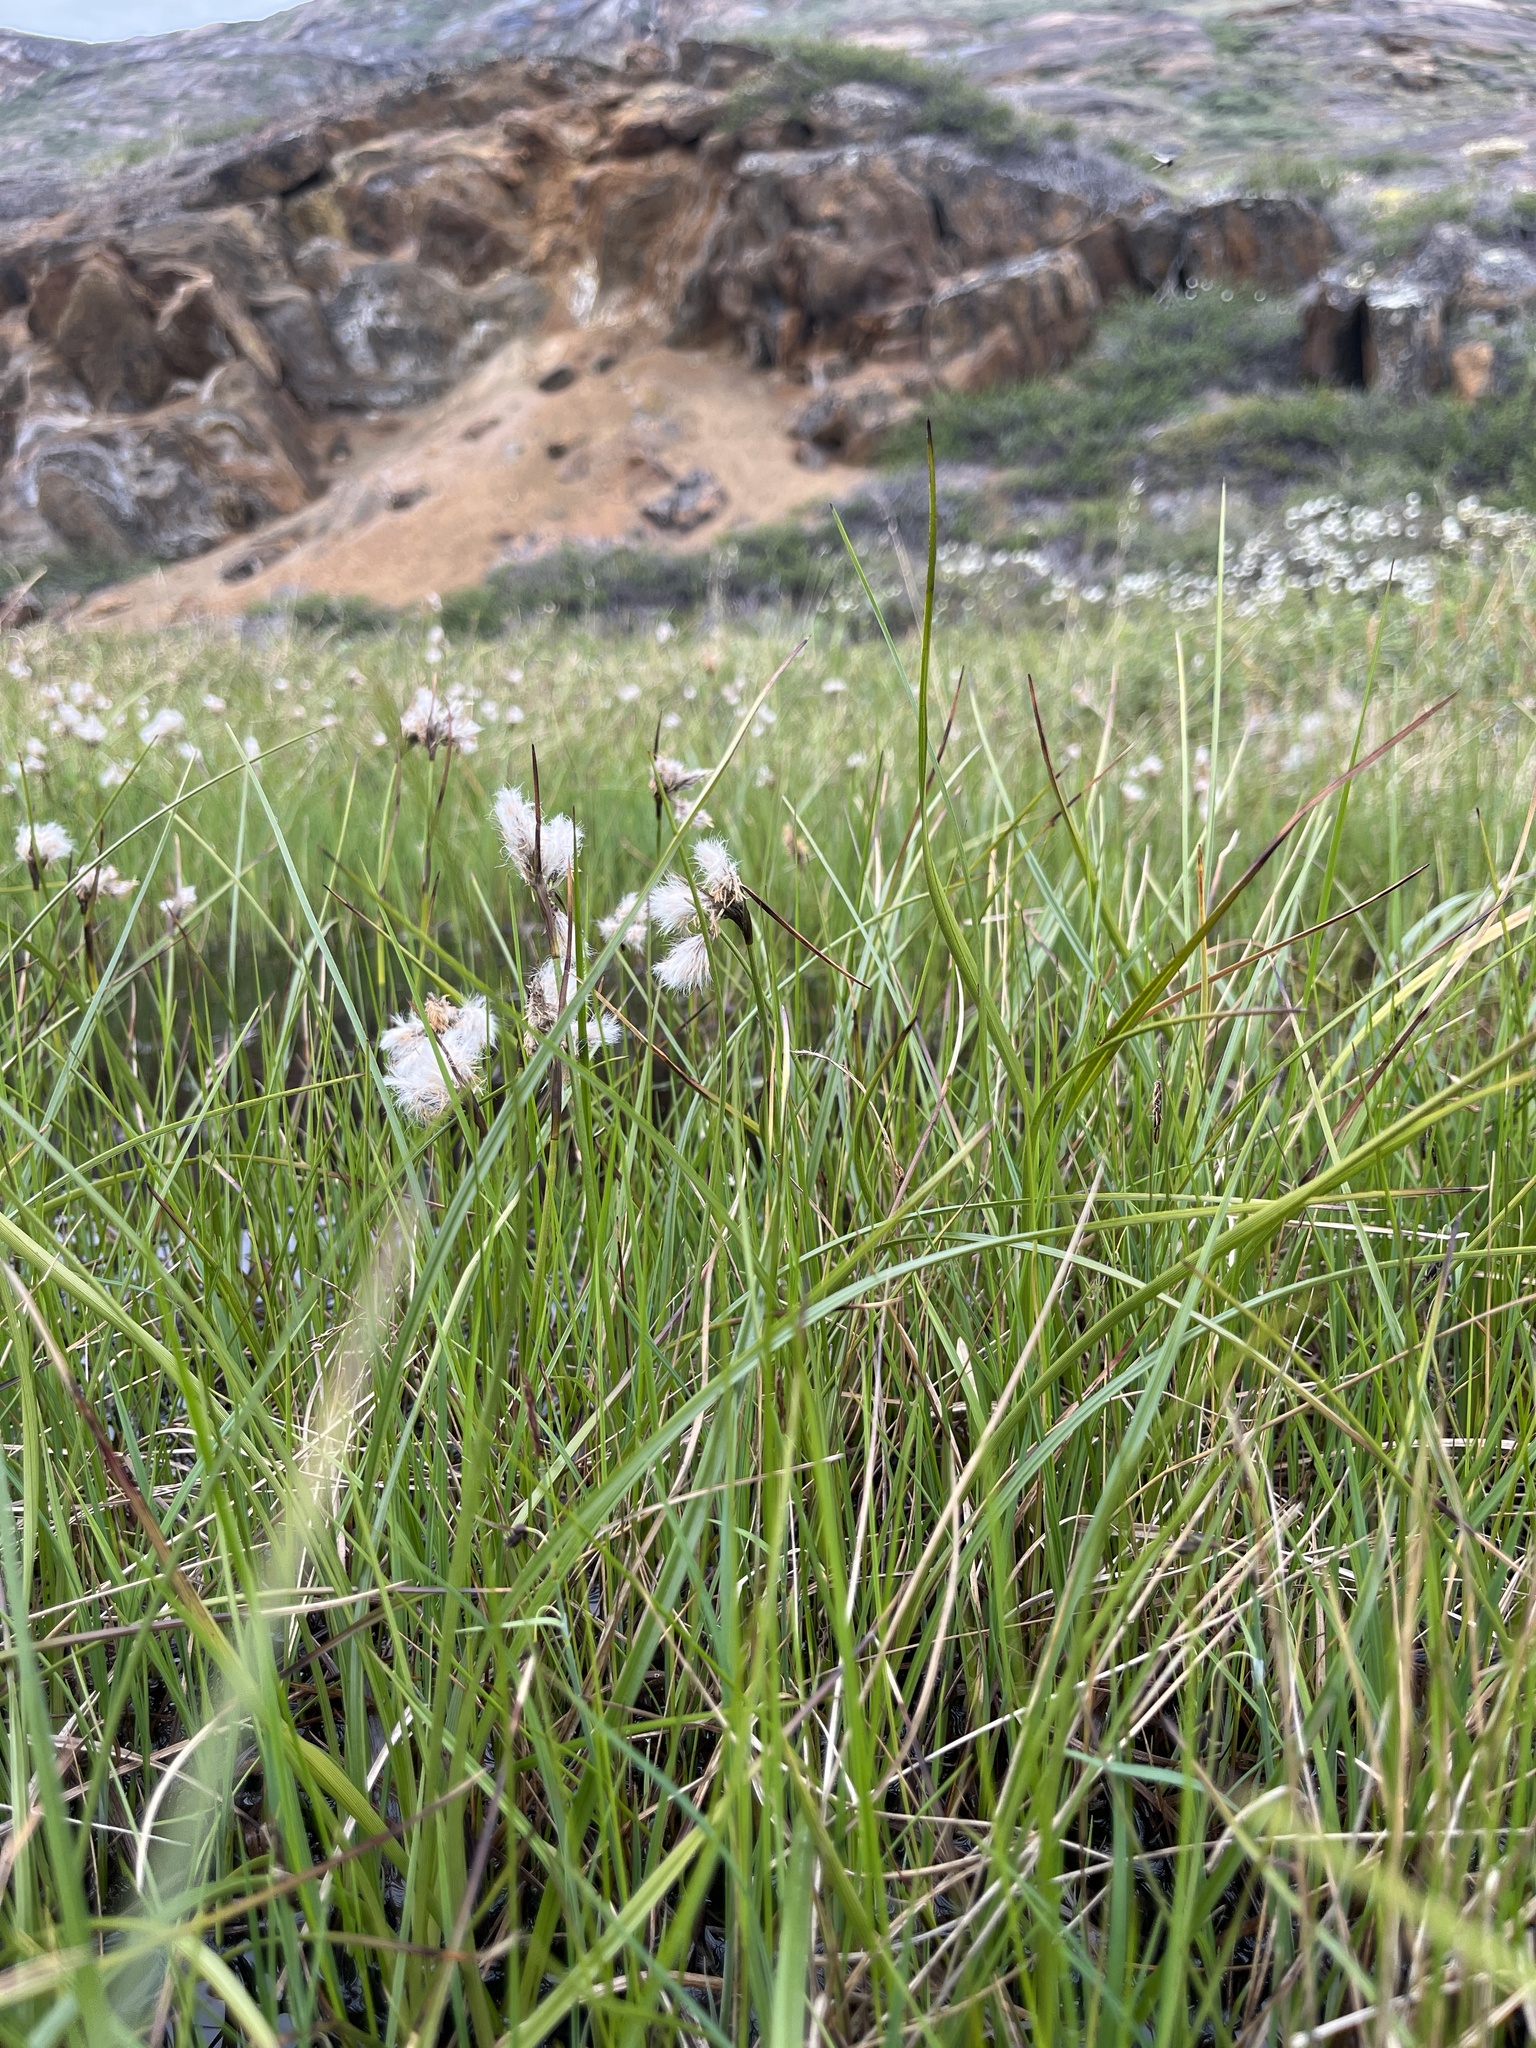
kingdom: Plantae
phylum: Tracheophyta
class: Liliopsida
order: Poales
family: Cyperaceae
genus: Eriophorum
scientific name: Eriophorum angustifolium
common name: Common cottongrass
